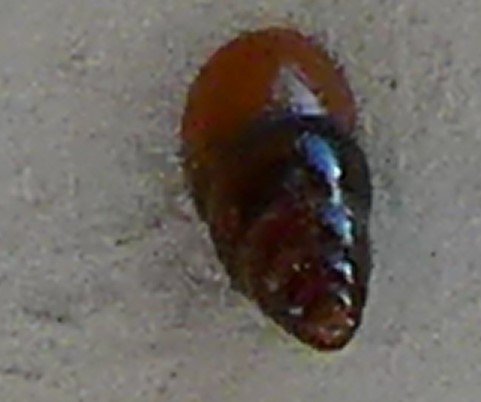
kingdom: Animalia
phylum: Mollusca
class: Gastropoda
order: Stylommatophora
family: Cochlicopidae
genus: Cochlicopa
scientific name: Cochlicopa lubrica
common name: Glossy pillar snail
